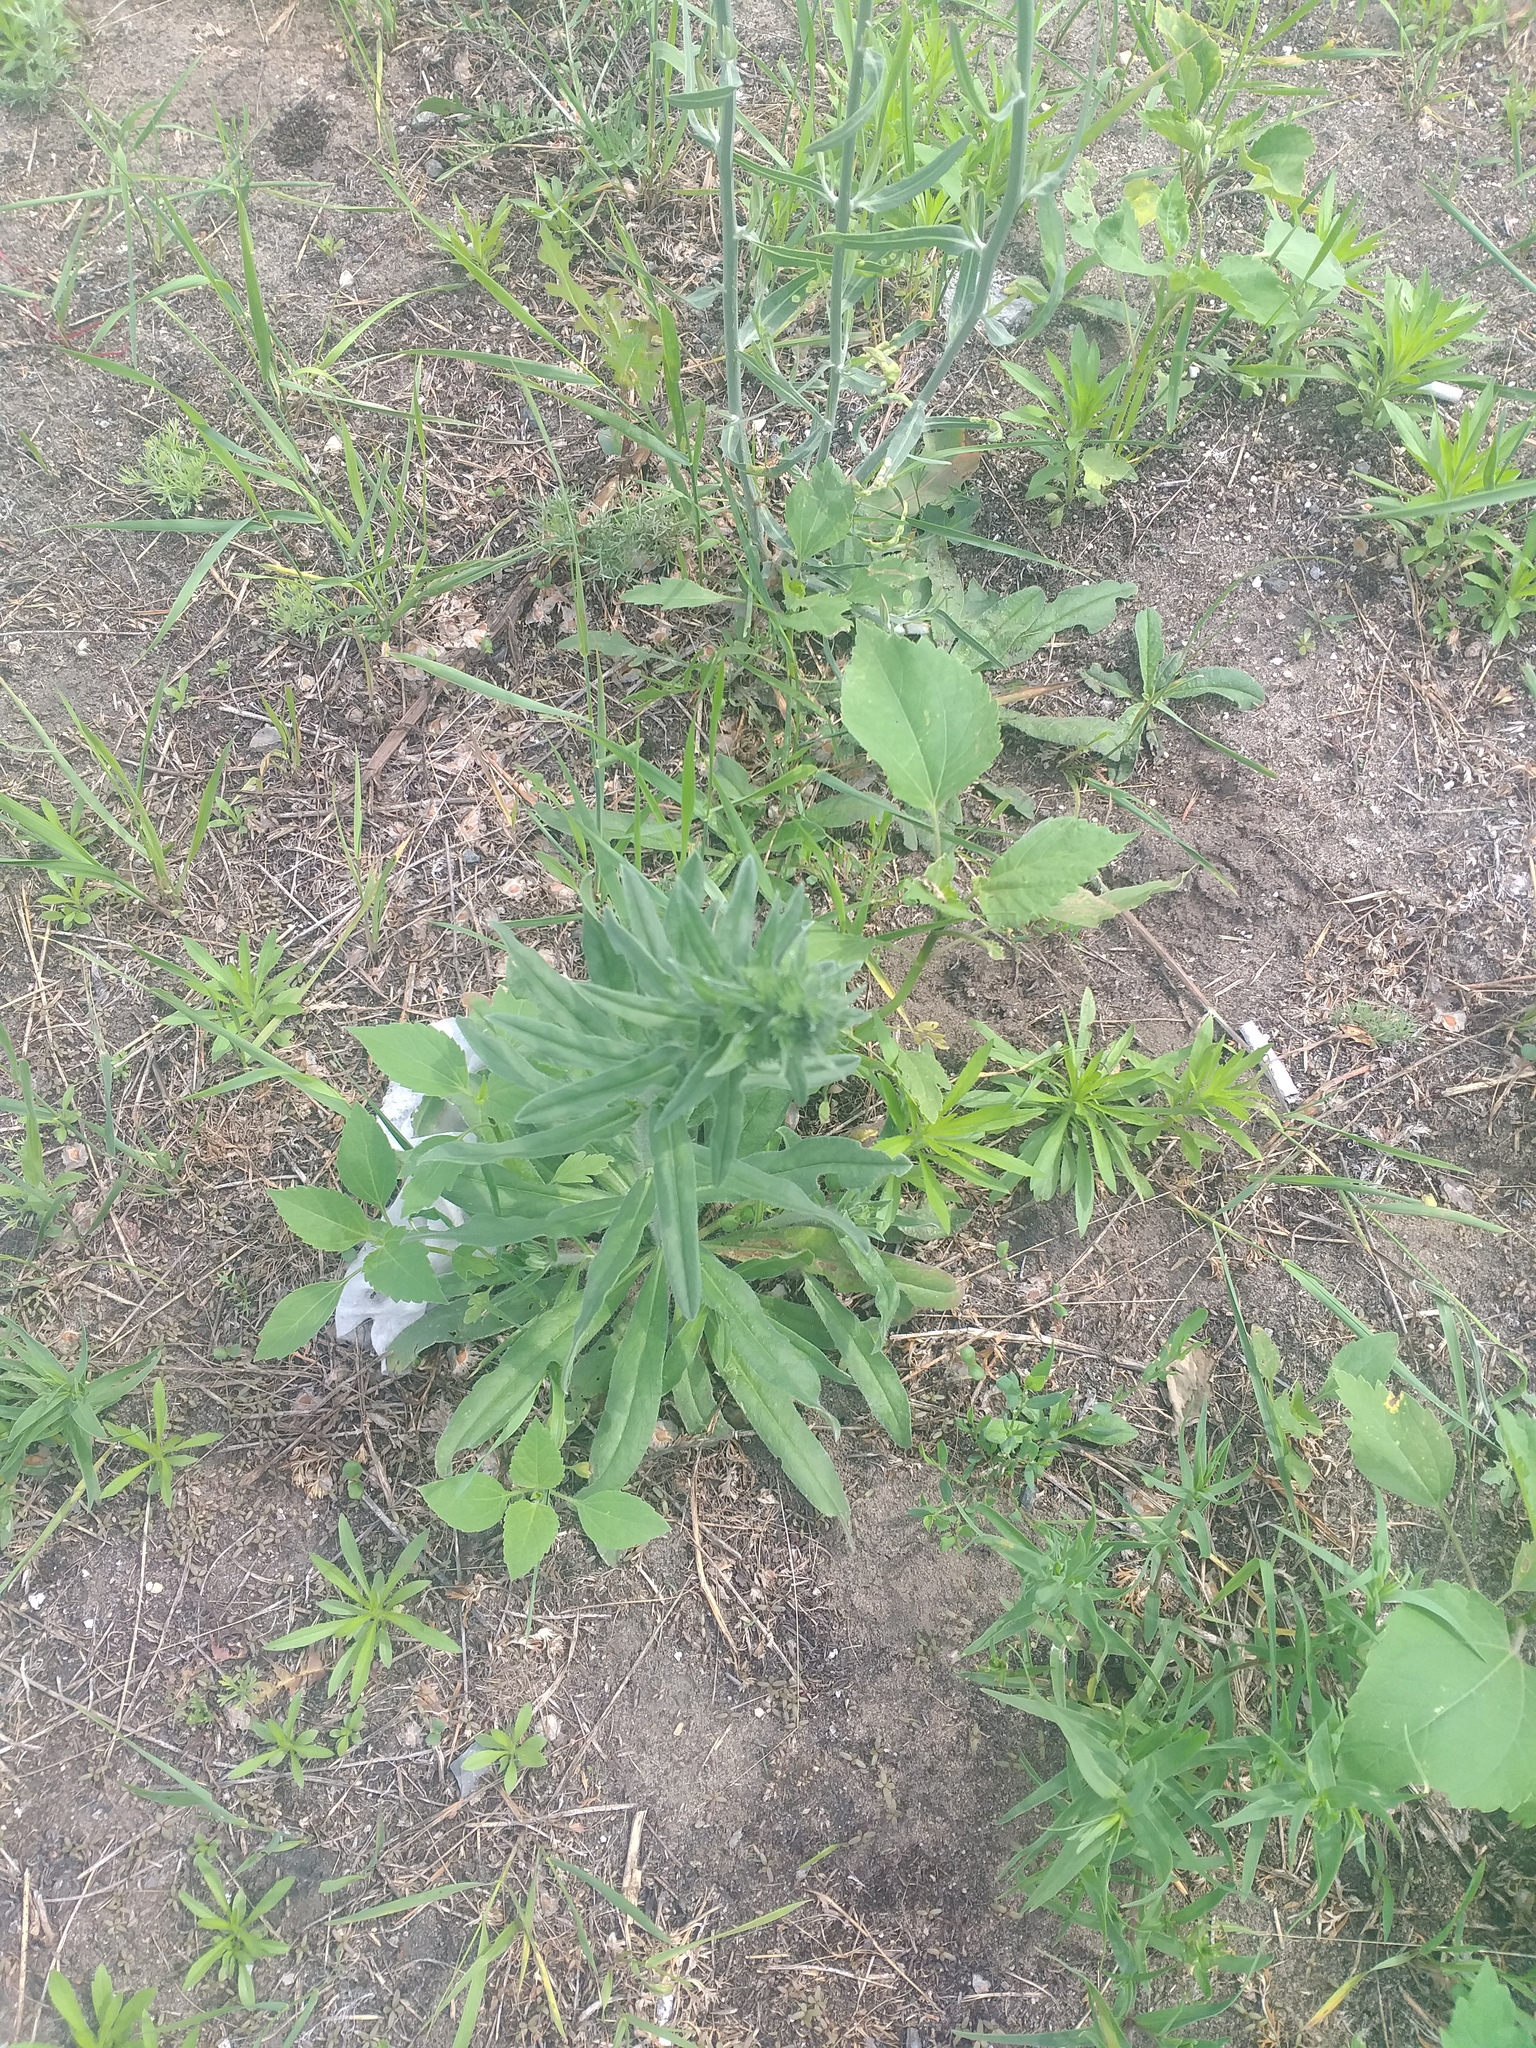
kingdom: Plantae
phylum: Tracheophyta
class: Magnoliopsida
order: Boraginales
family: Boraginaceae
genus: Echium
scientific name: Echium vulgare
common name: Common viper's bugloss
